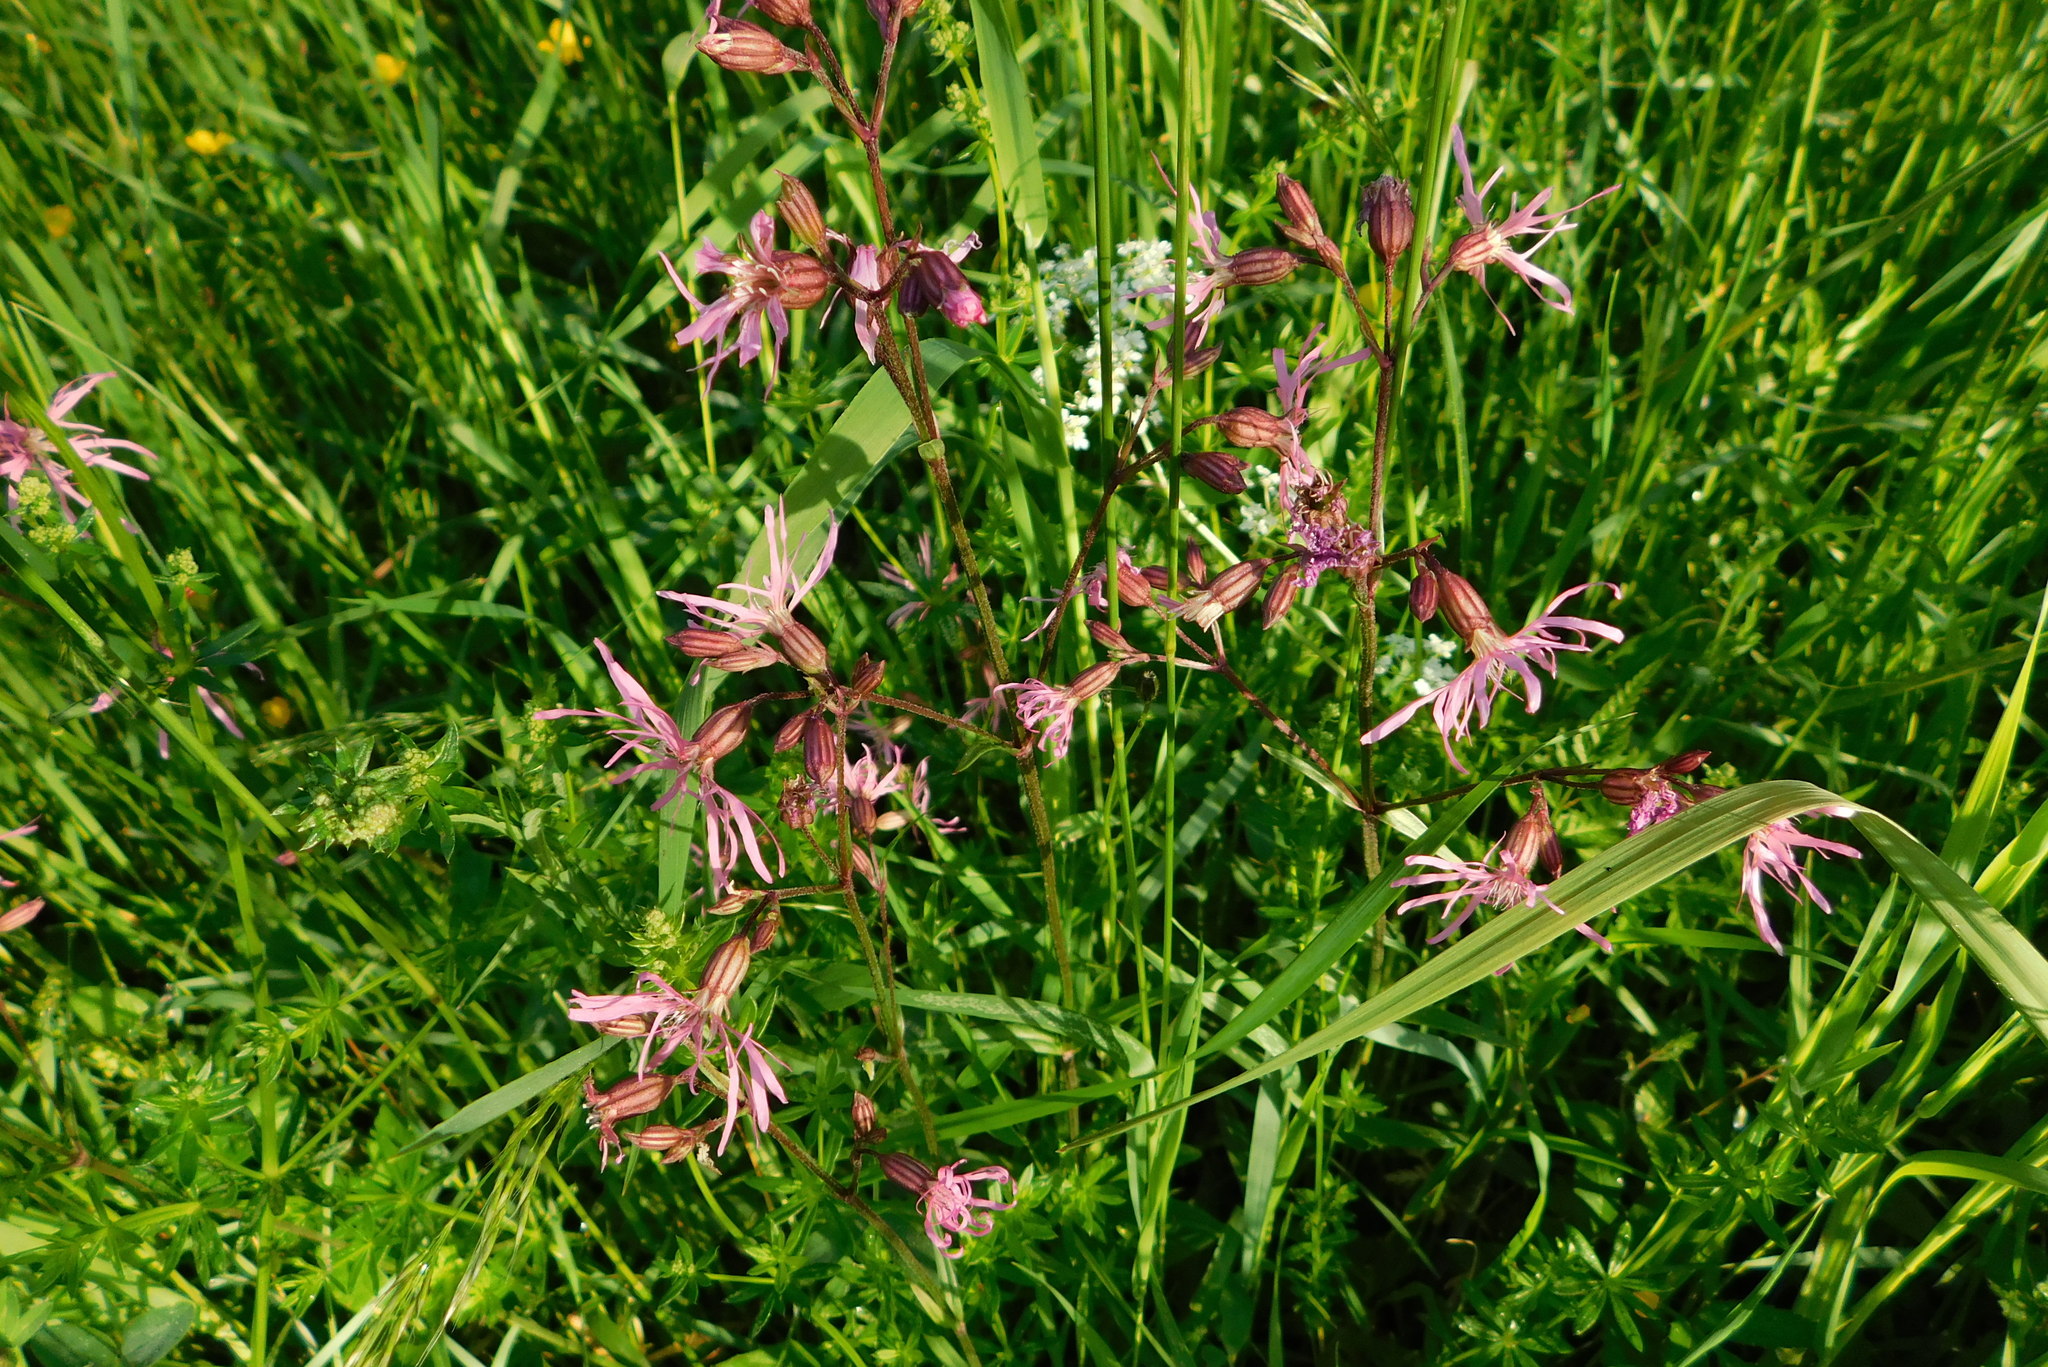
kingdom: Plantae
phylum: Tracheophyta
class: Magnoliopsida
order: Caryophyllales
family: Caryophyllaceae
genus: Silene
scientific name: Silene flos-cuculi
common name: Ragged-robin
